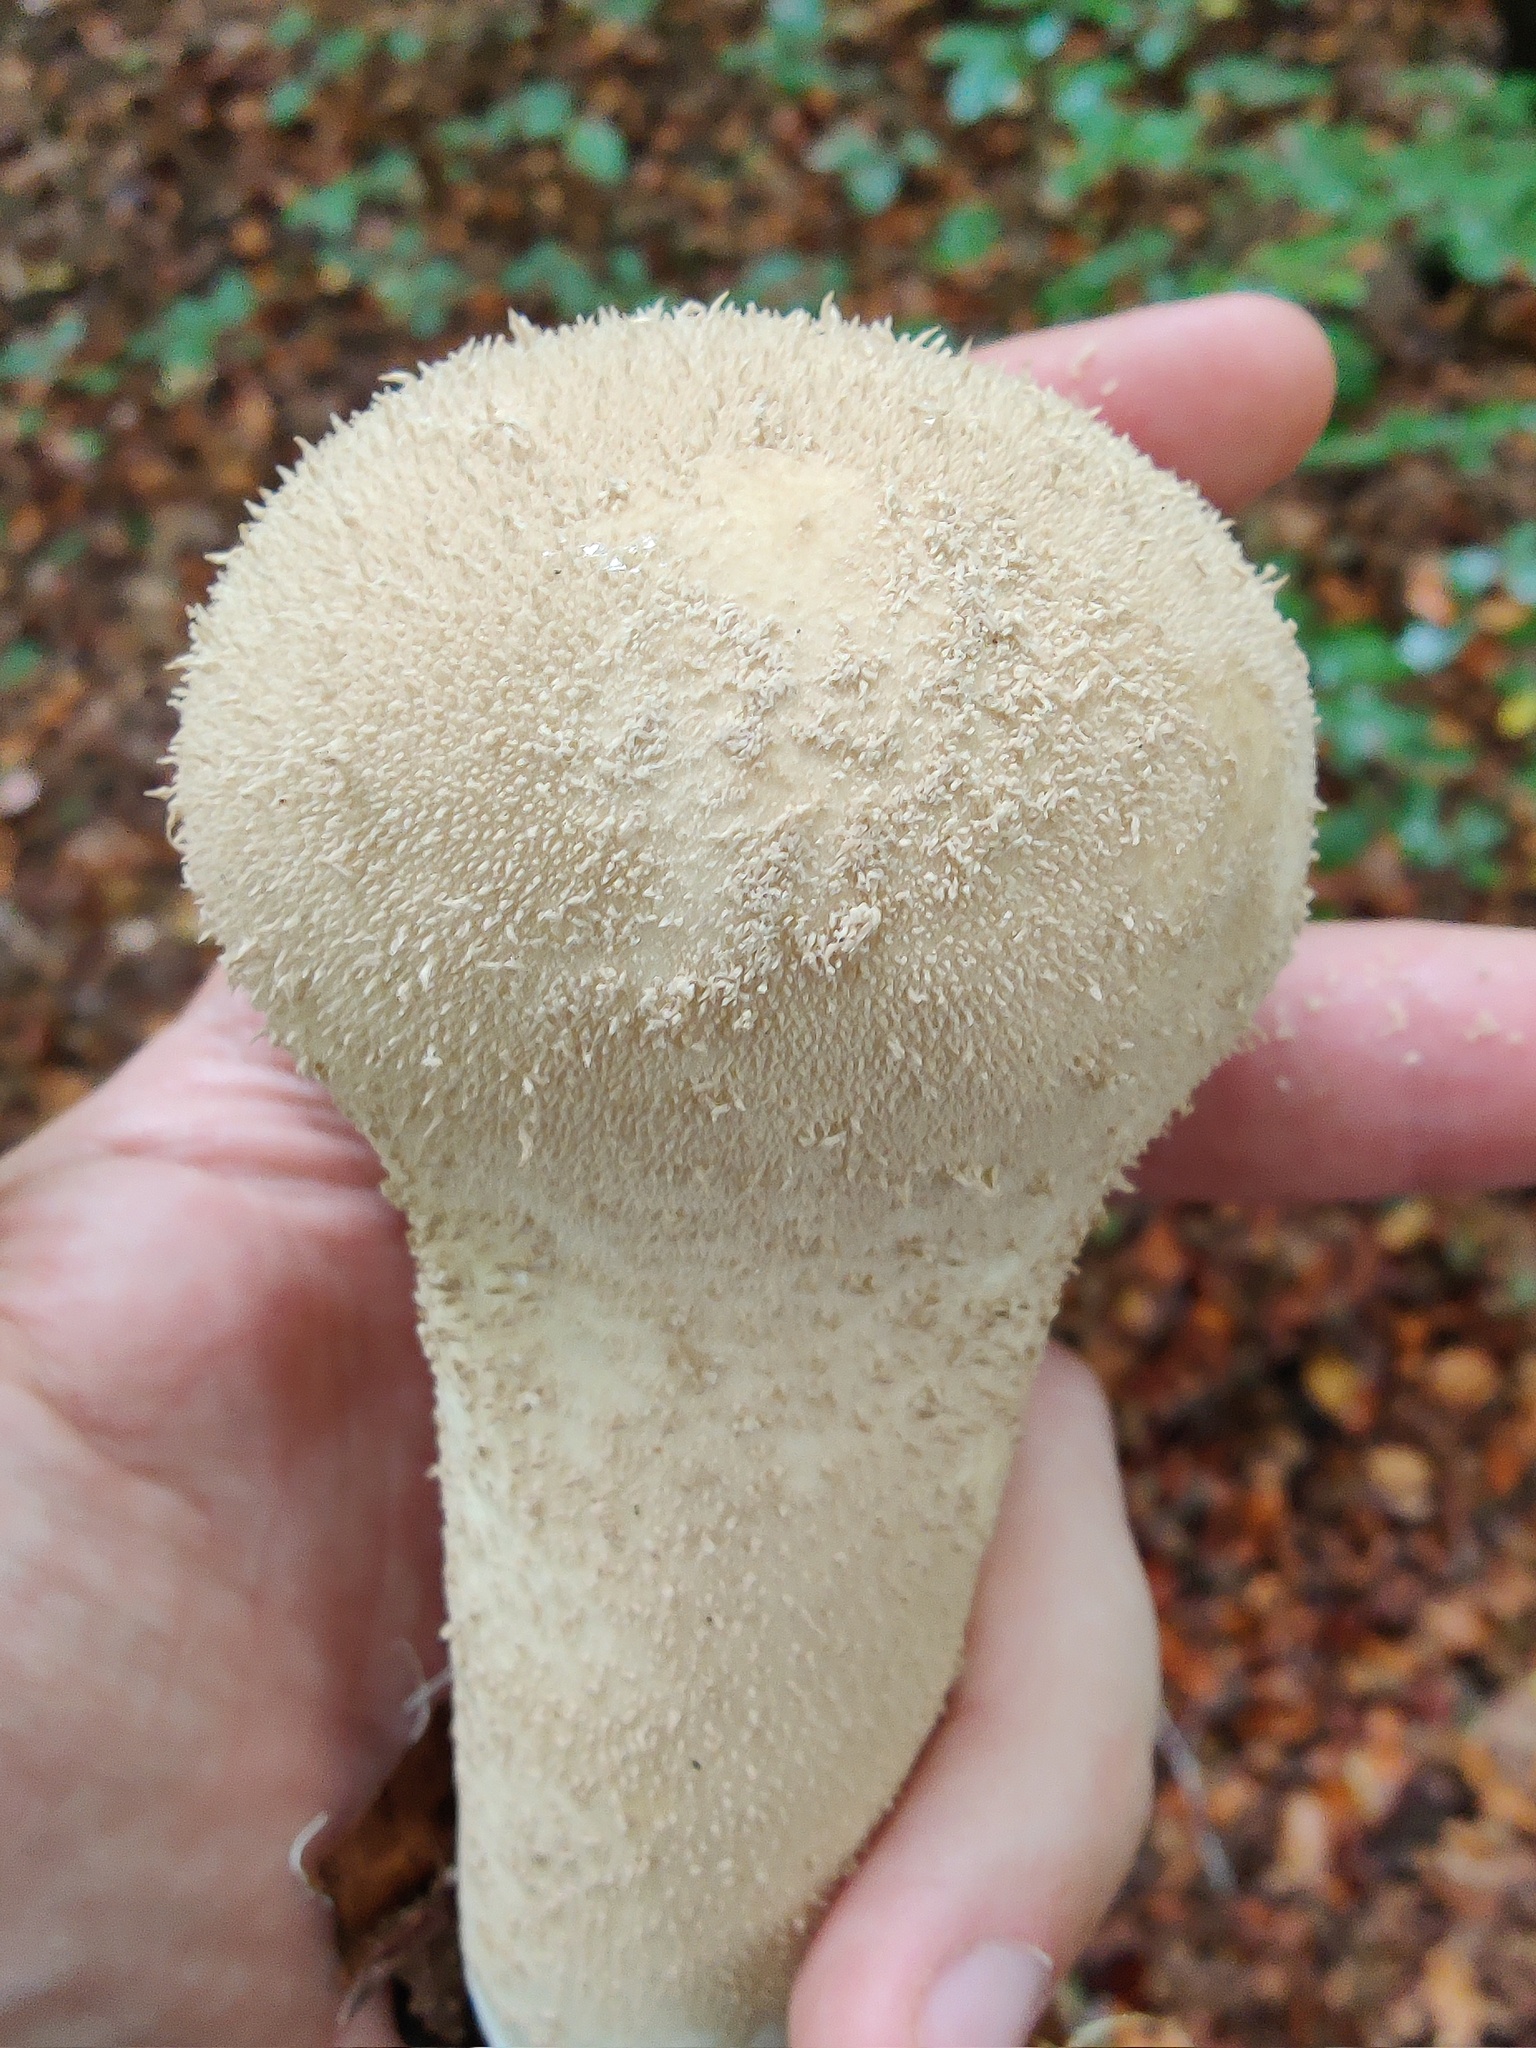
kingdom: Fungi
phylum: Basidiomycota
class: Agaricomycetes
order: Agaricales
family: Lycoperdaceae
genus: Lycoperdon
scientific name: Lycoperdon excipuliforme
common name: Pestle puffball
